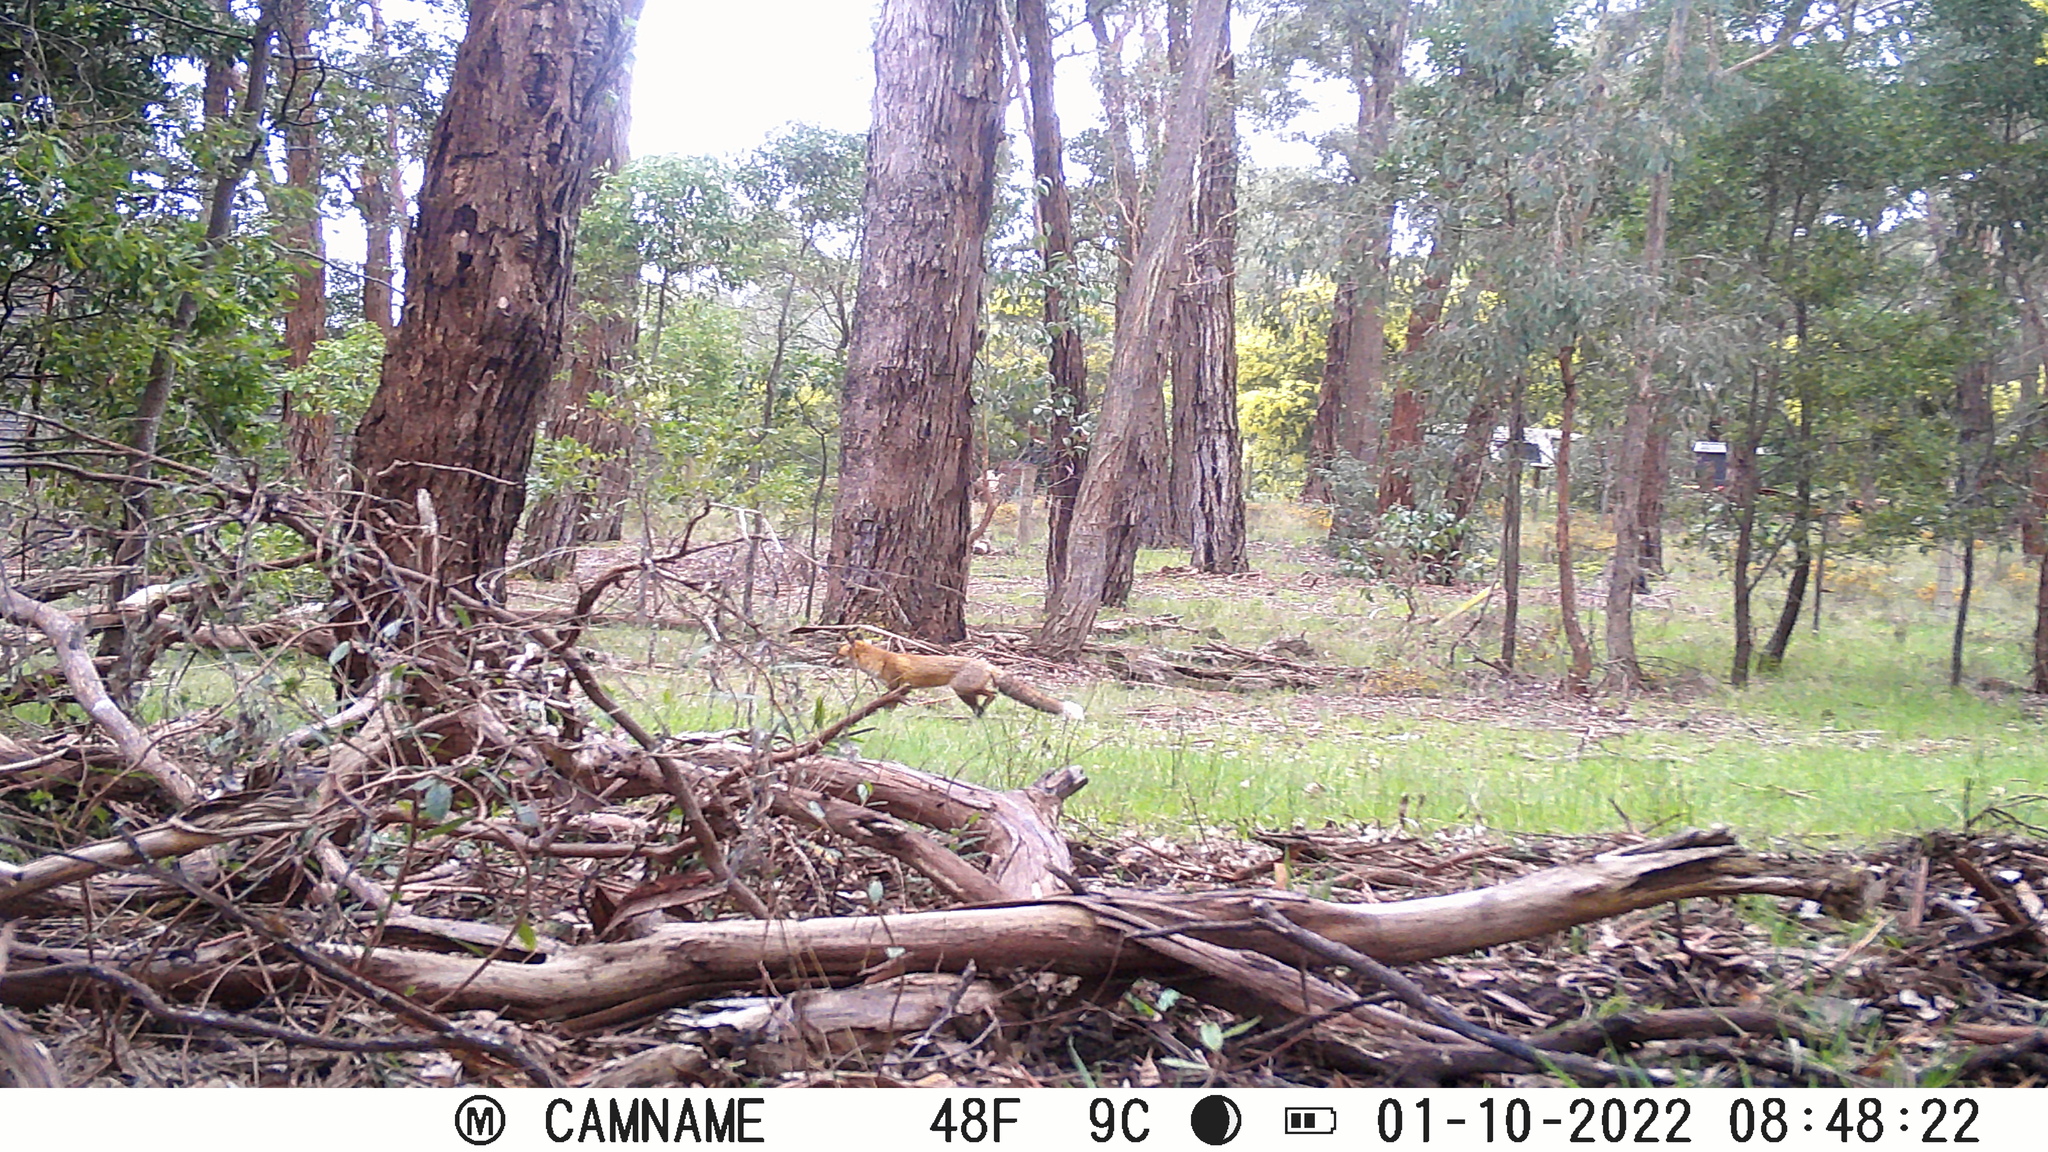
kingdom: Animalia
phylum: Chordata
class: Mammalia
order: Carnivora
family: Canidae
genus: Vulpes
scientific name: Vulpes vulpes
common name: Red fox
